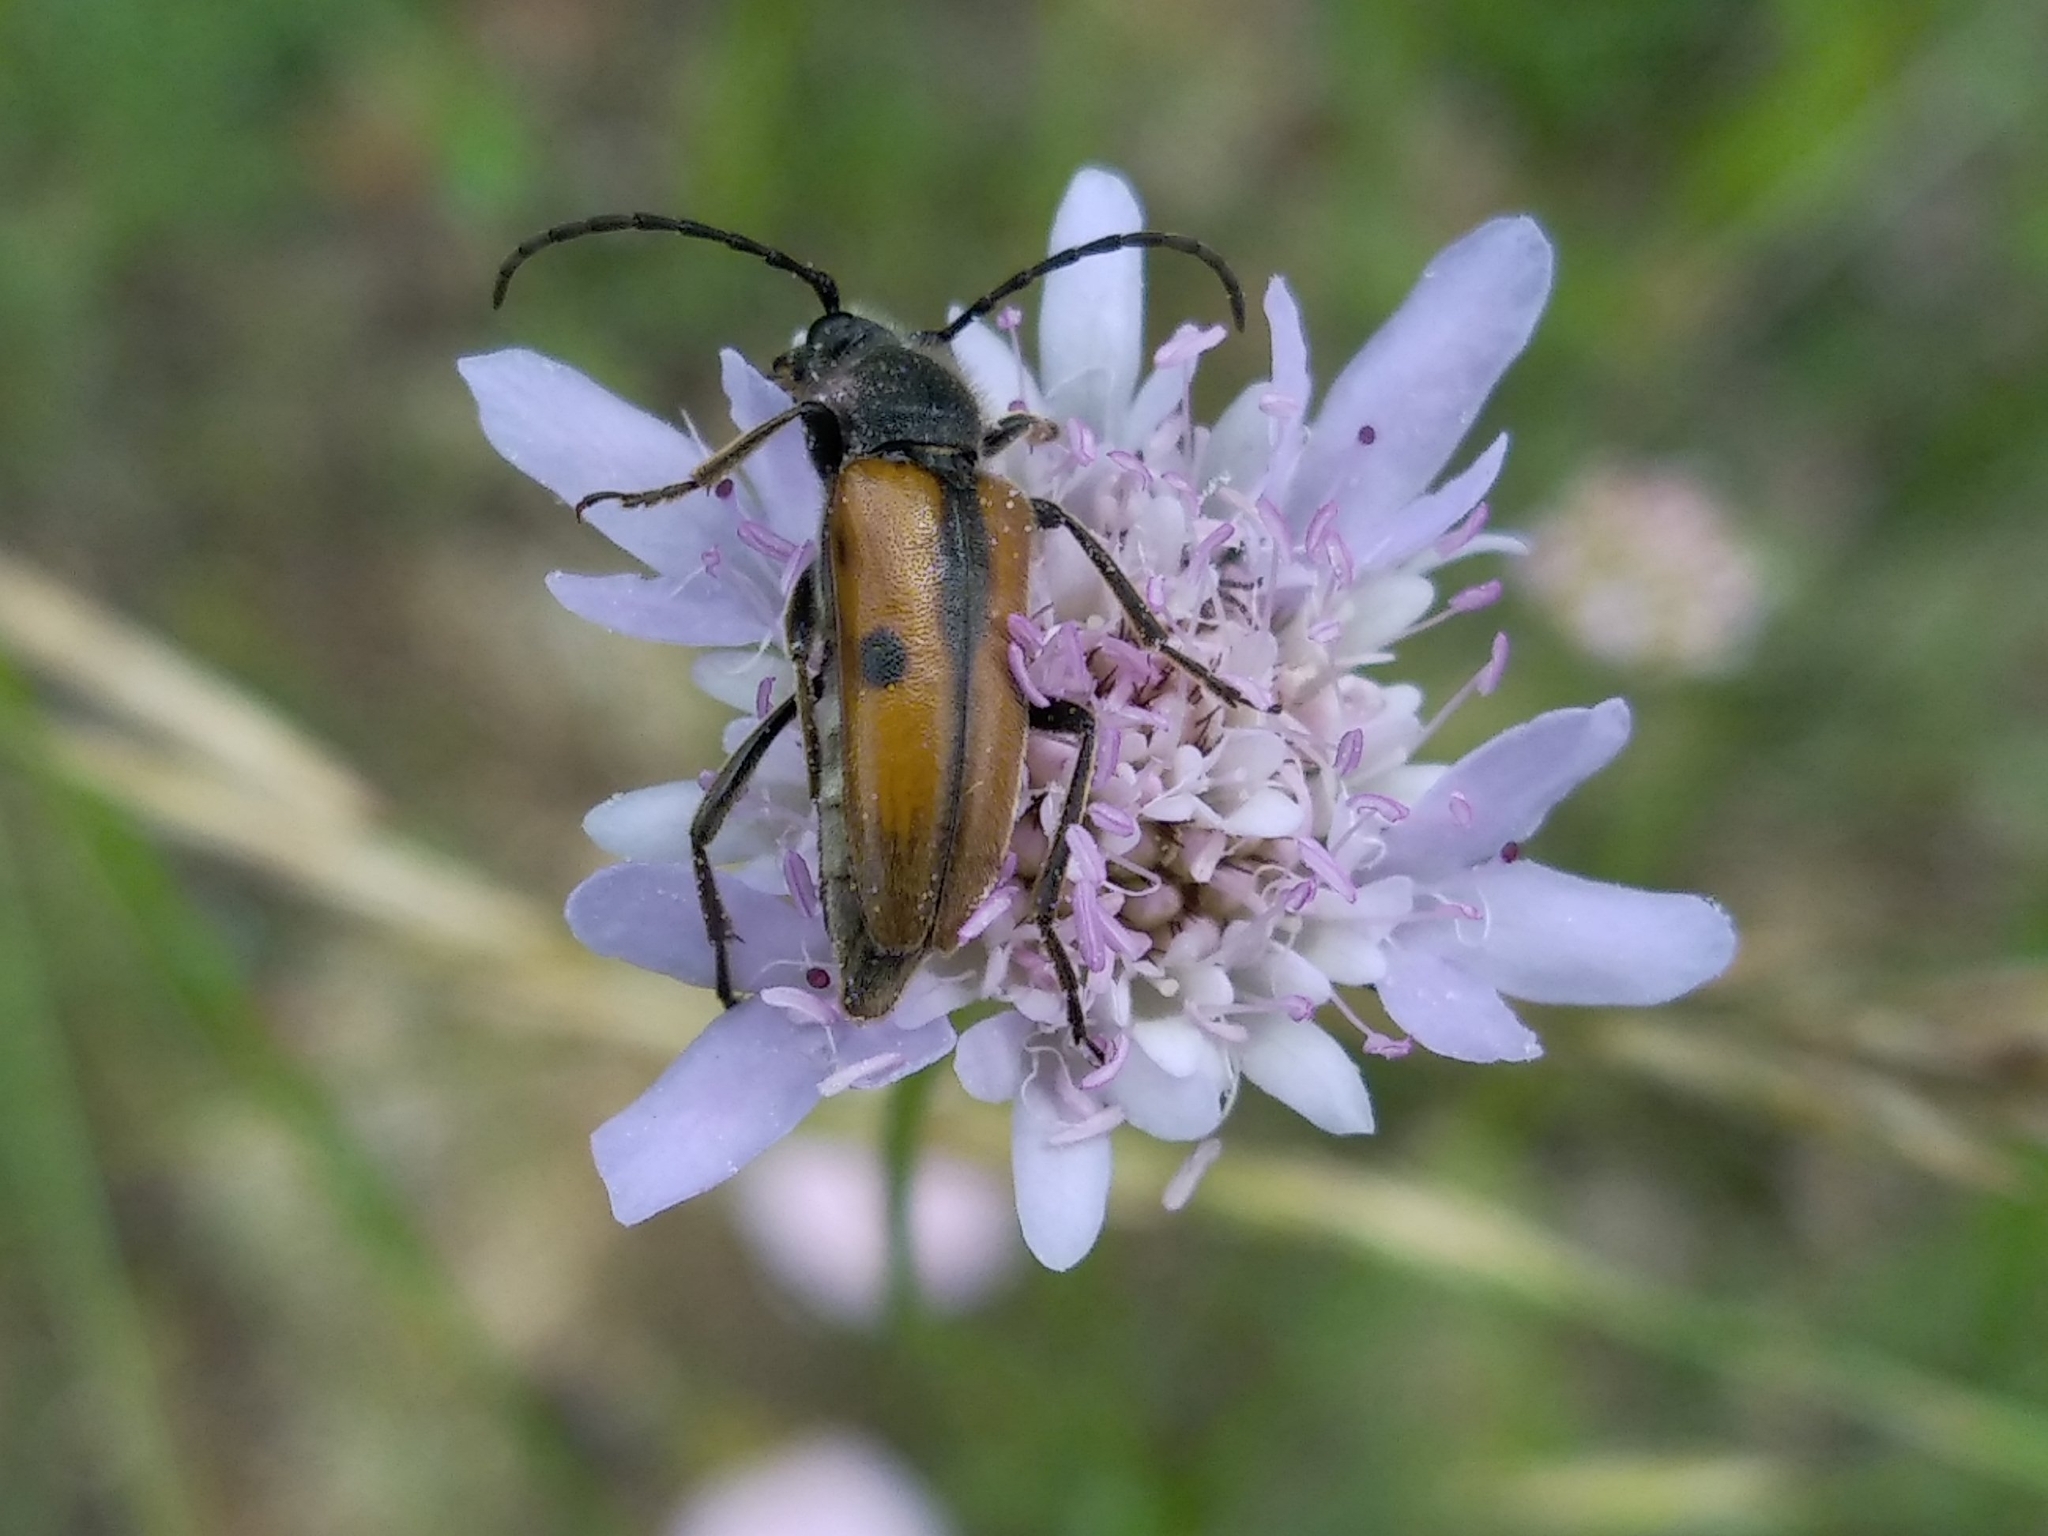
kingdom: Animalia
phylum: Arthropoda
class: Insecta
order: Coleoptera
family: Cerambycidae
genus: Vadonia
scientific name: Vadonia unipunctata
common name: Long-horned beetle
